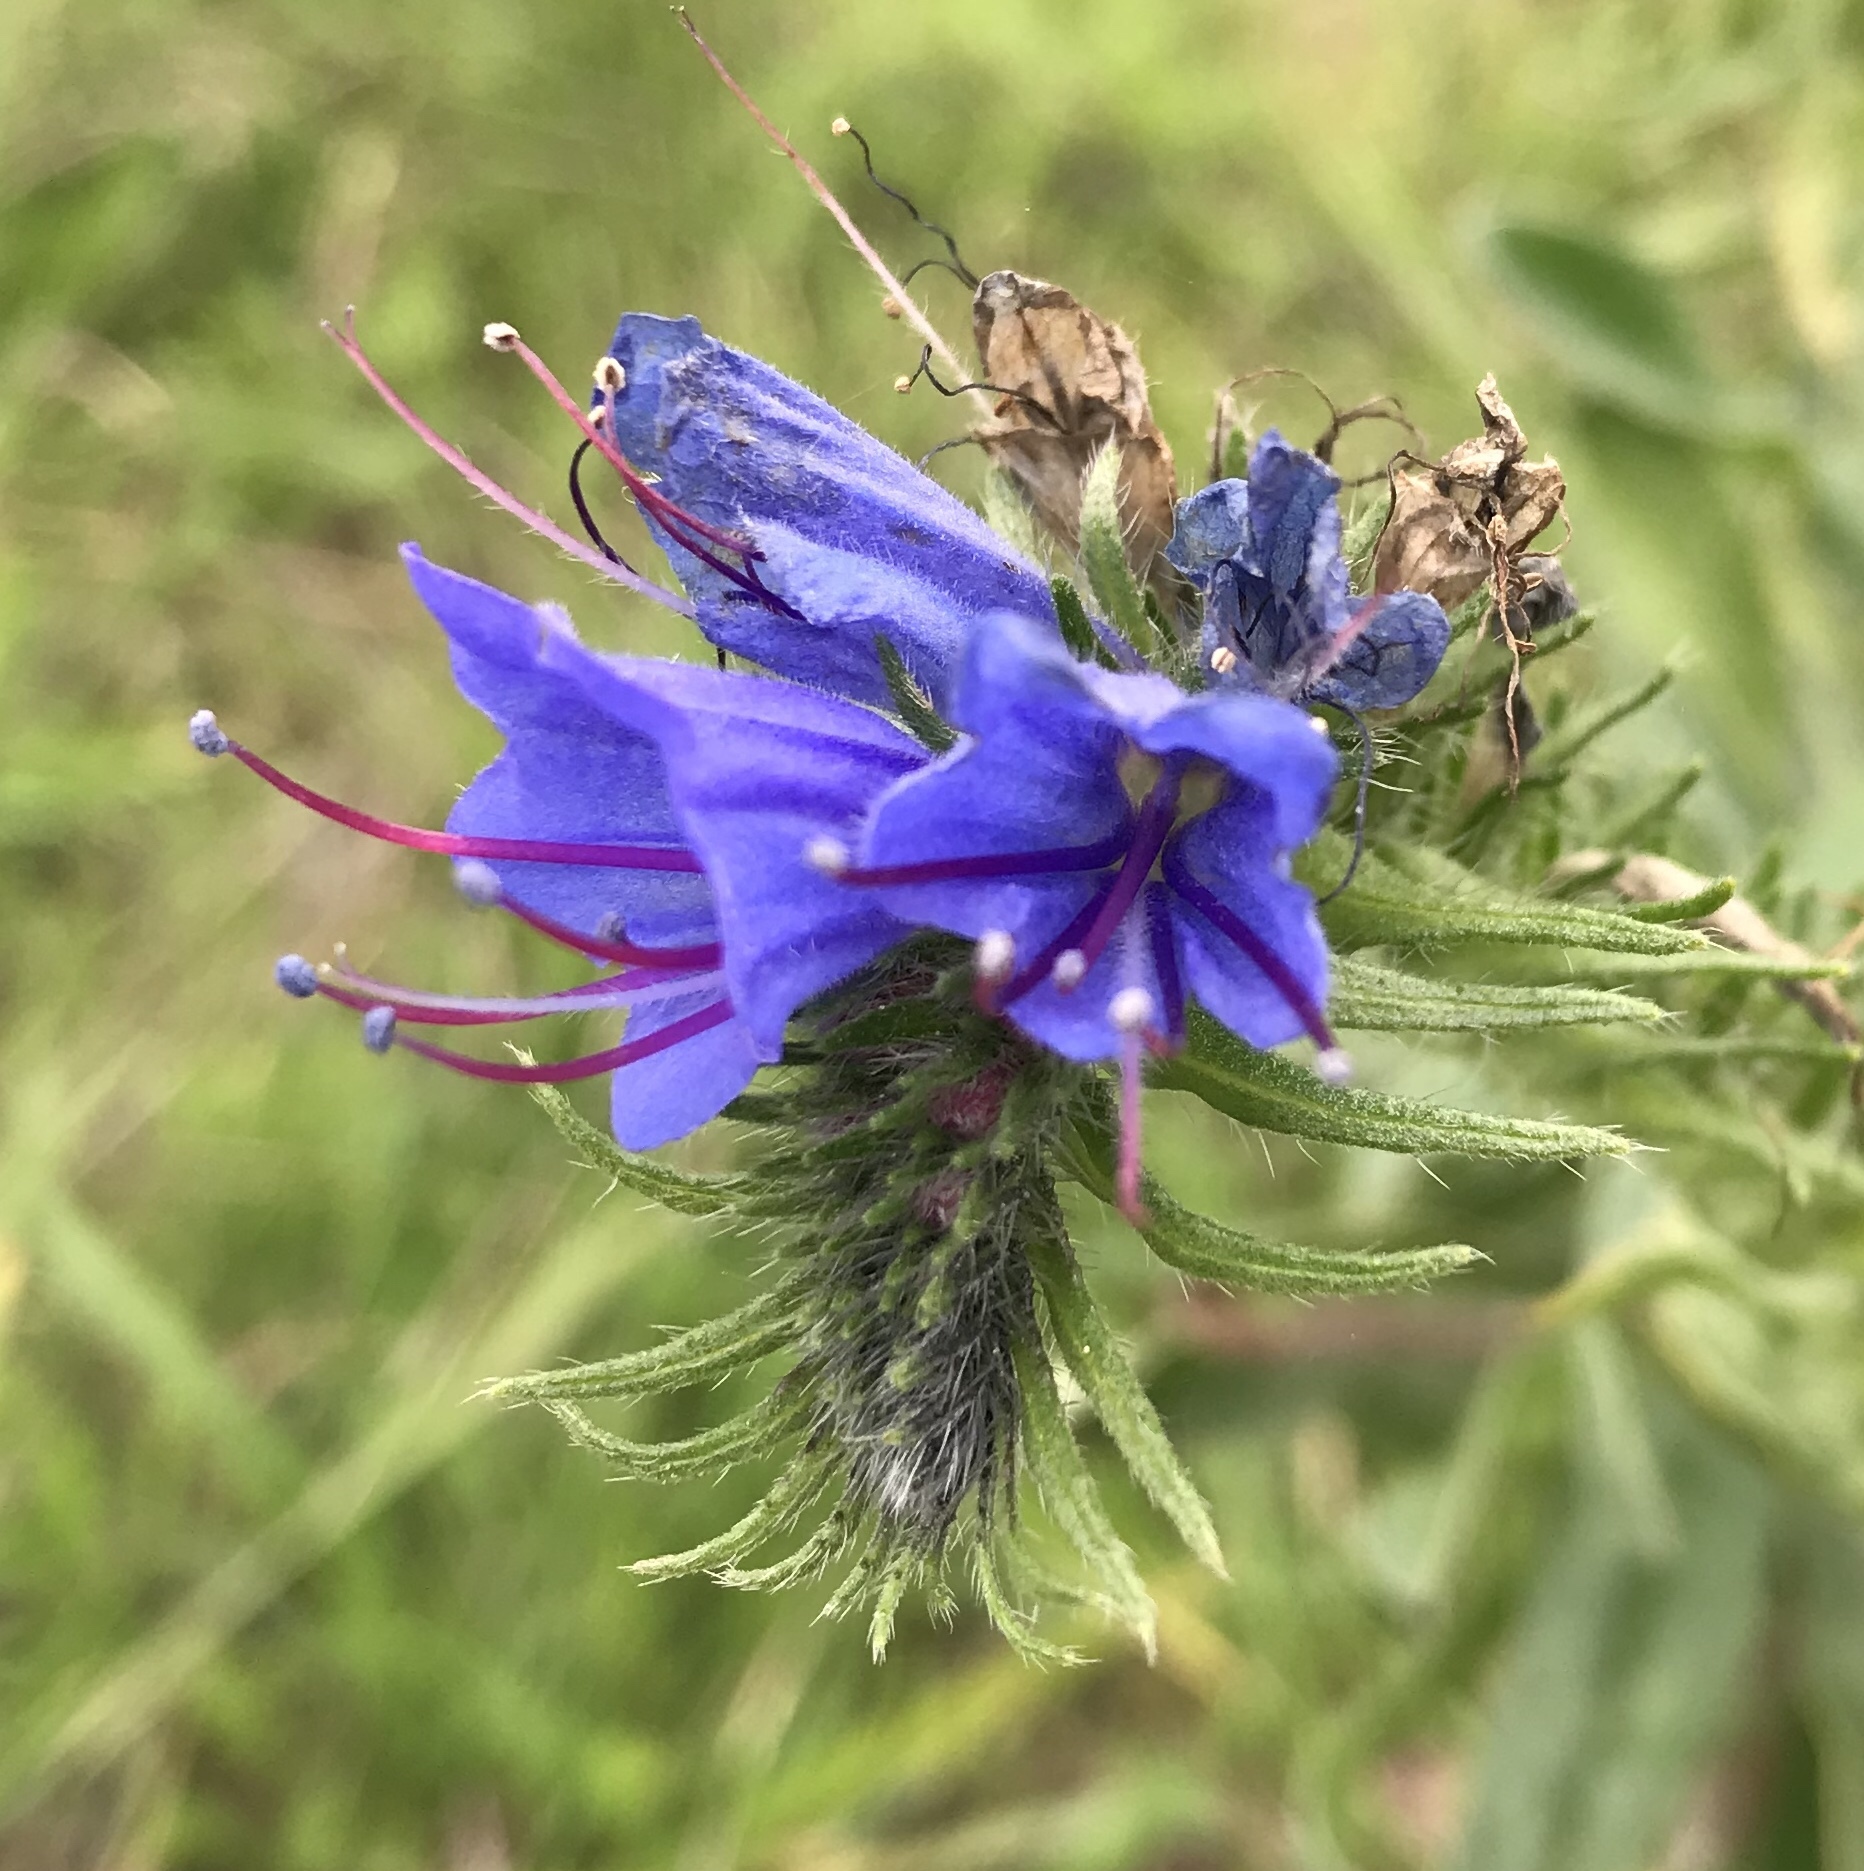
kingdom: Plantae
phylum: Tracheophyta
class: Magnoliopsida
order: Boraginales
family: Boraginaceae
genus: Echium
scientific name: Echium vulgare
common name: Common viper's bugloss
